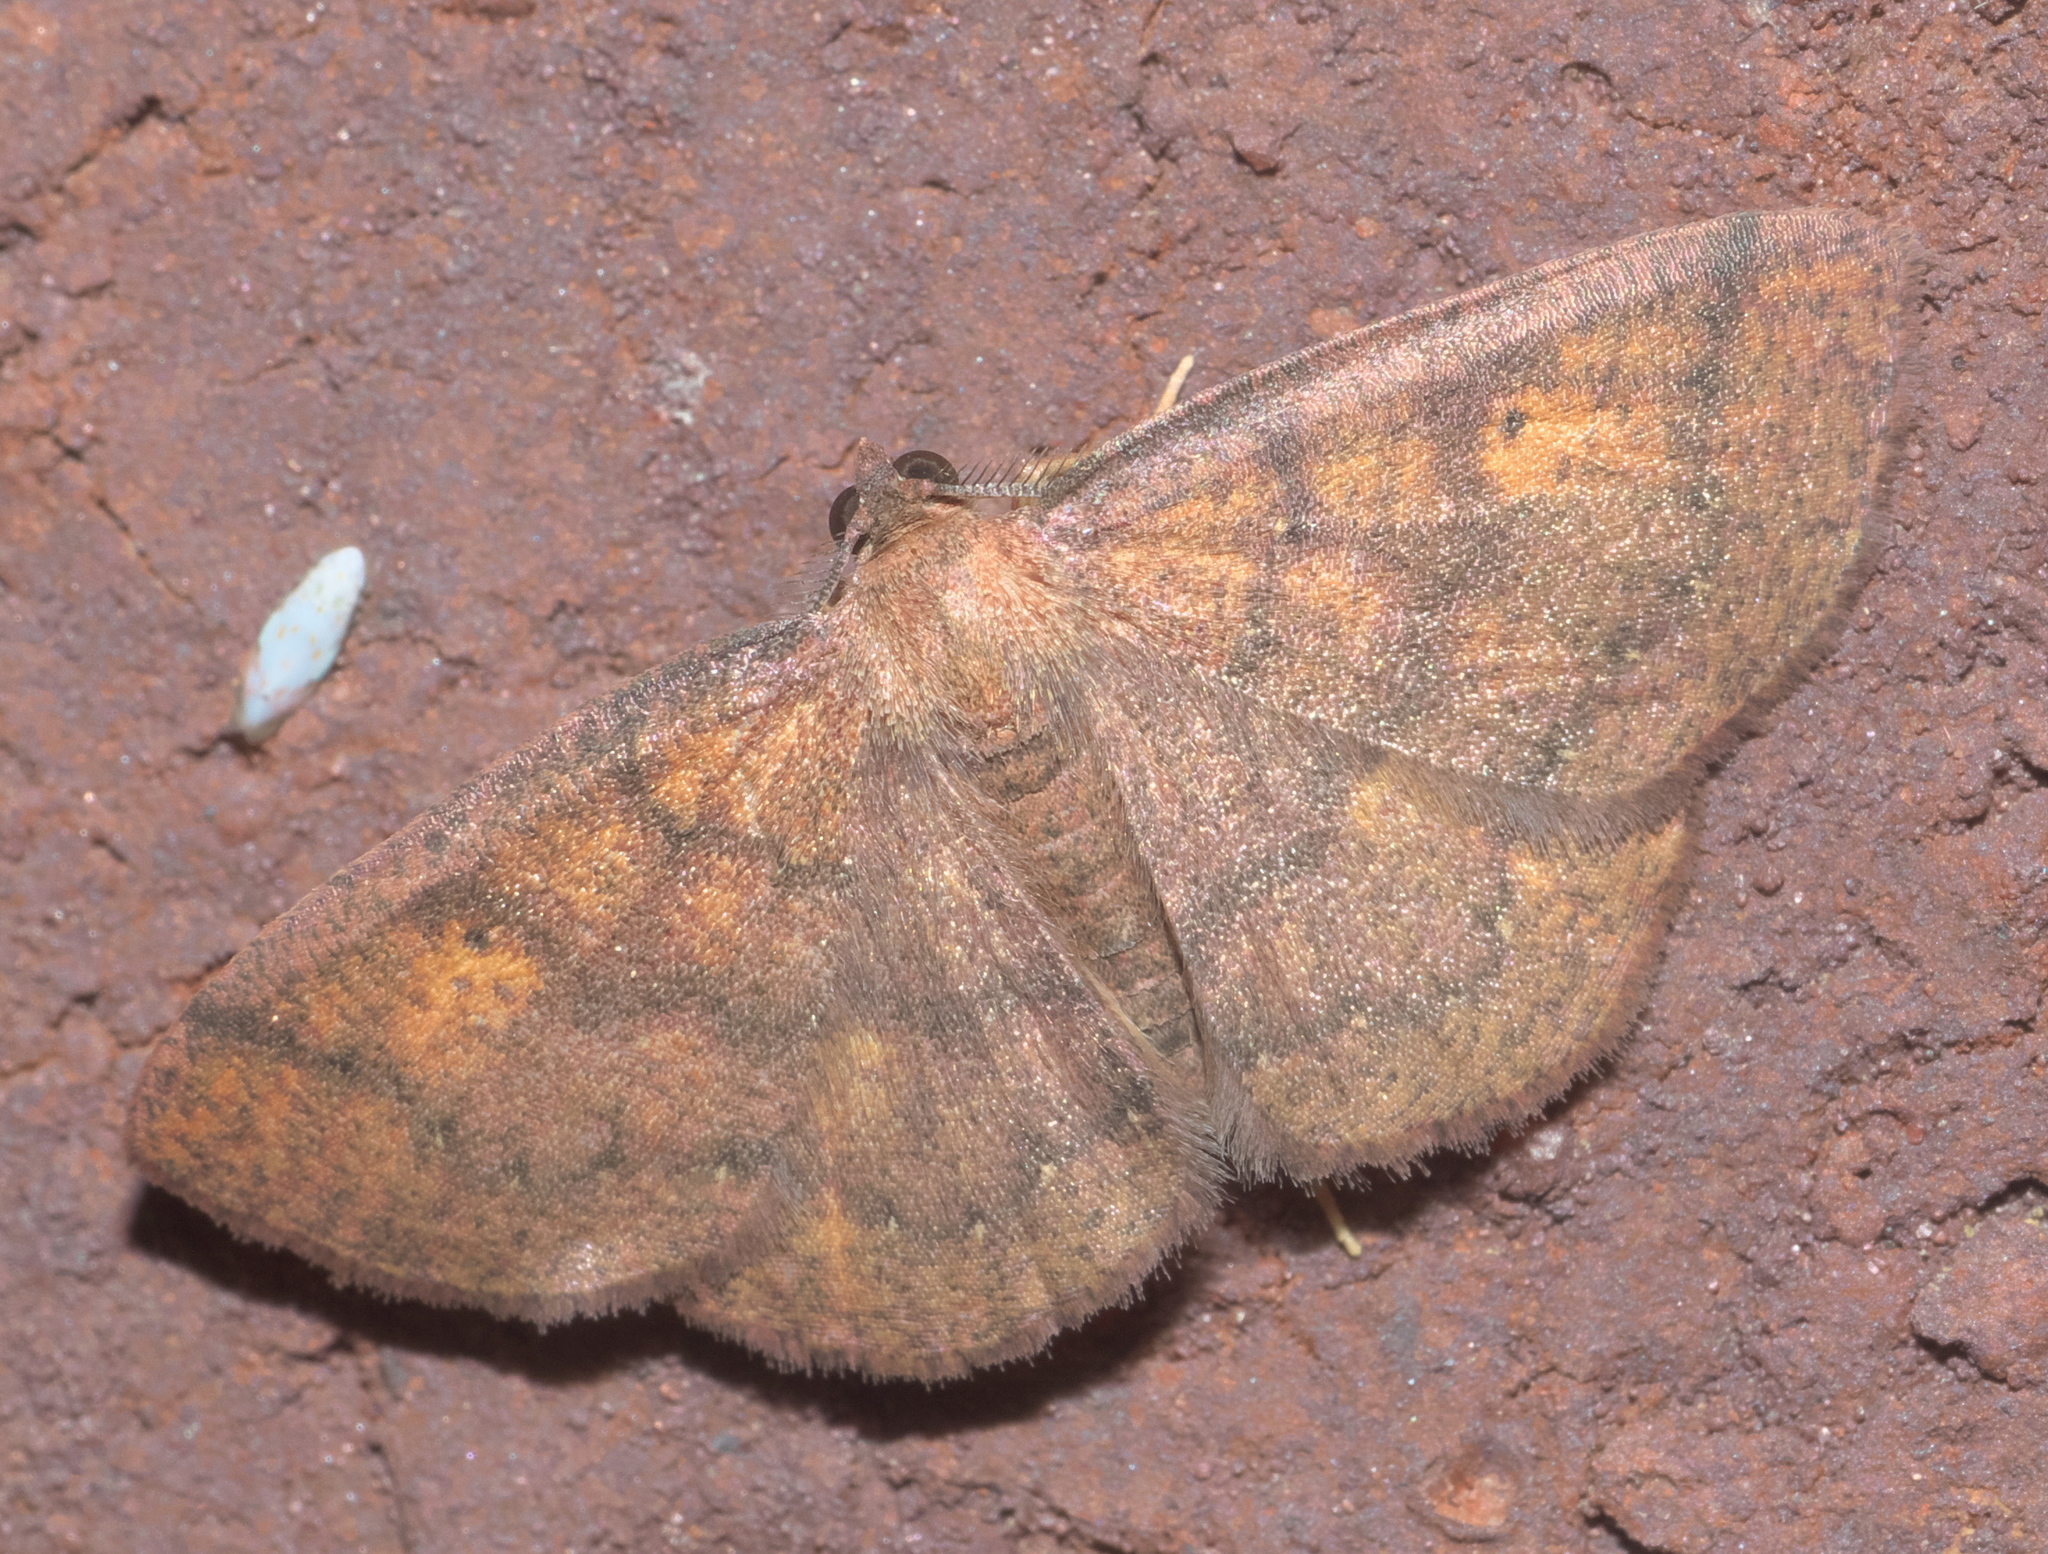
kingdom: Animalia
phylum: Arthropoda
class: Insecta
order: Lepidoptera
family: Geometridae
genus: Ilexia
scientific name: Ilexia intractata
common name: Black-dotted ruddy moth
